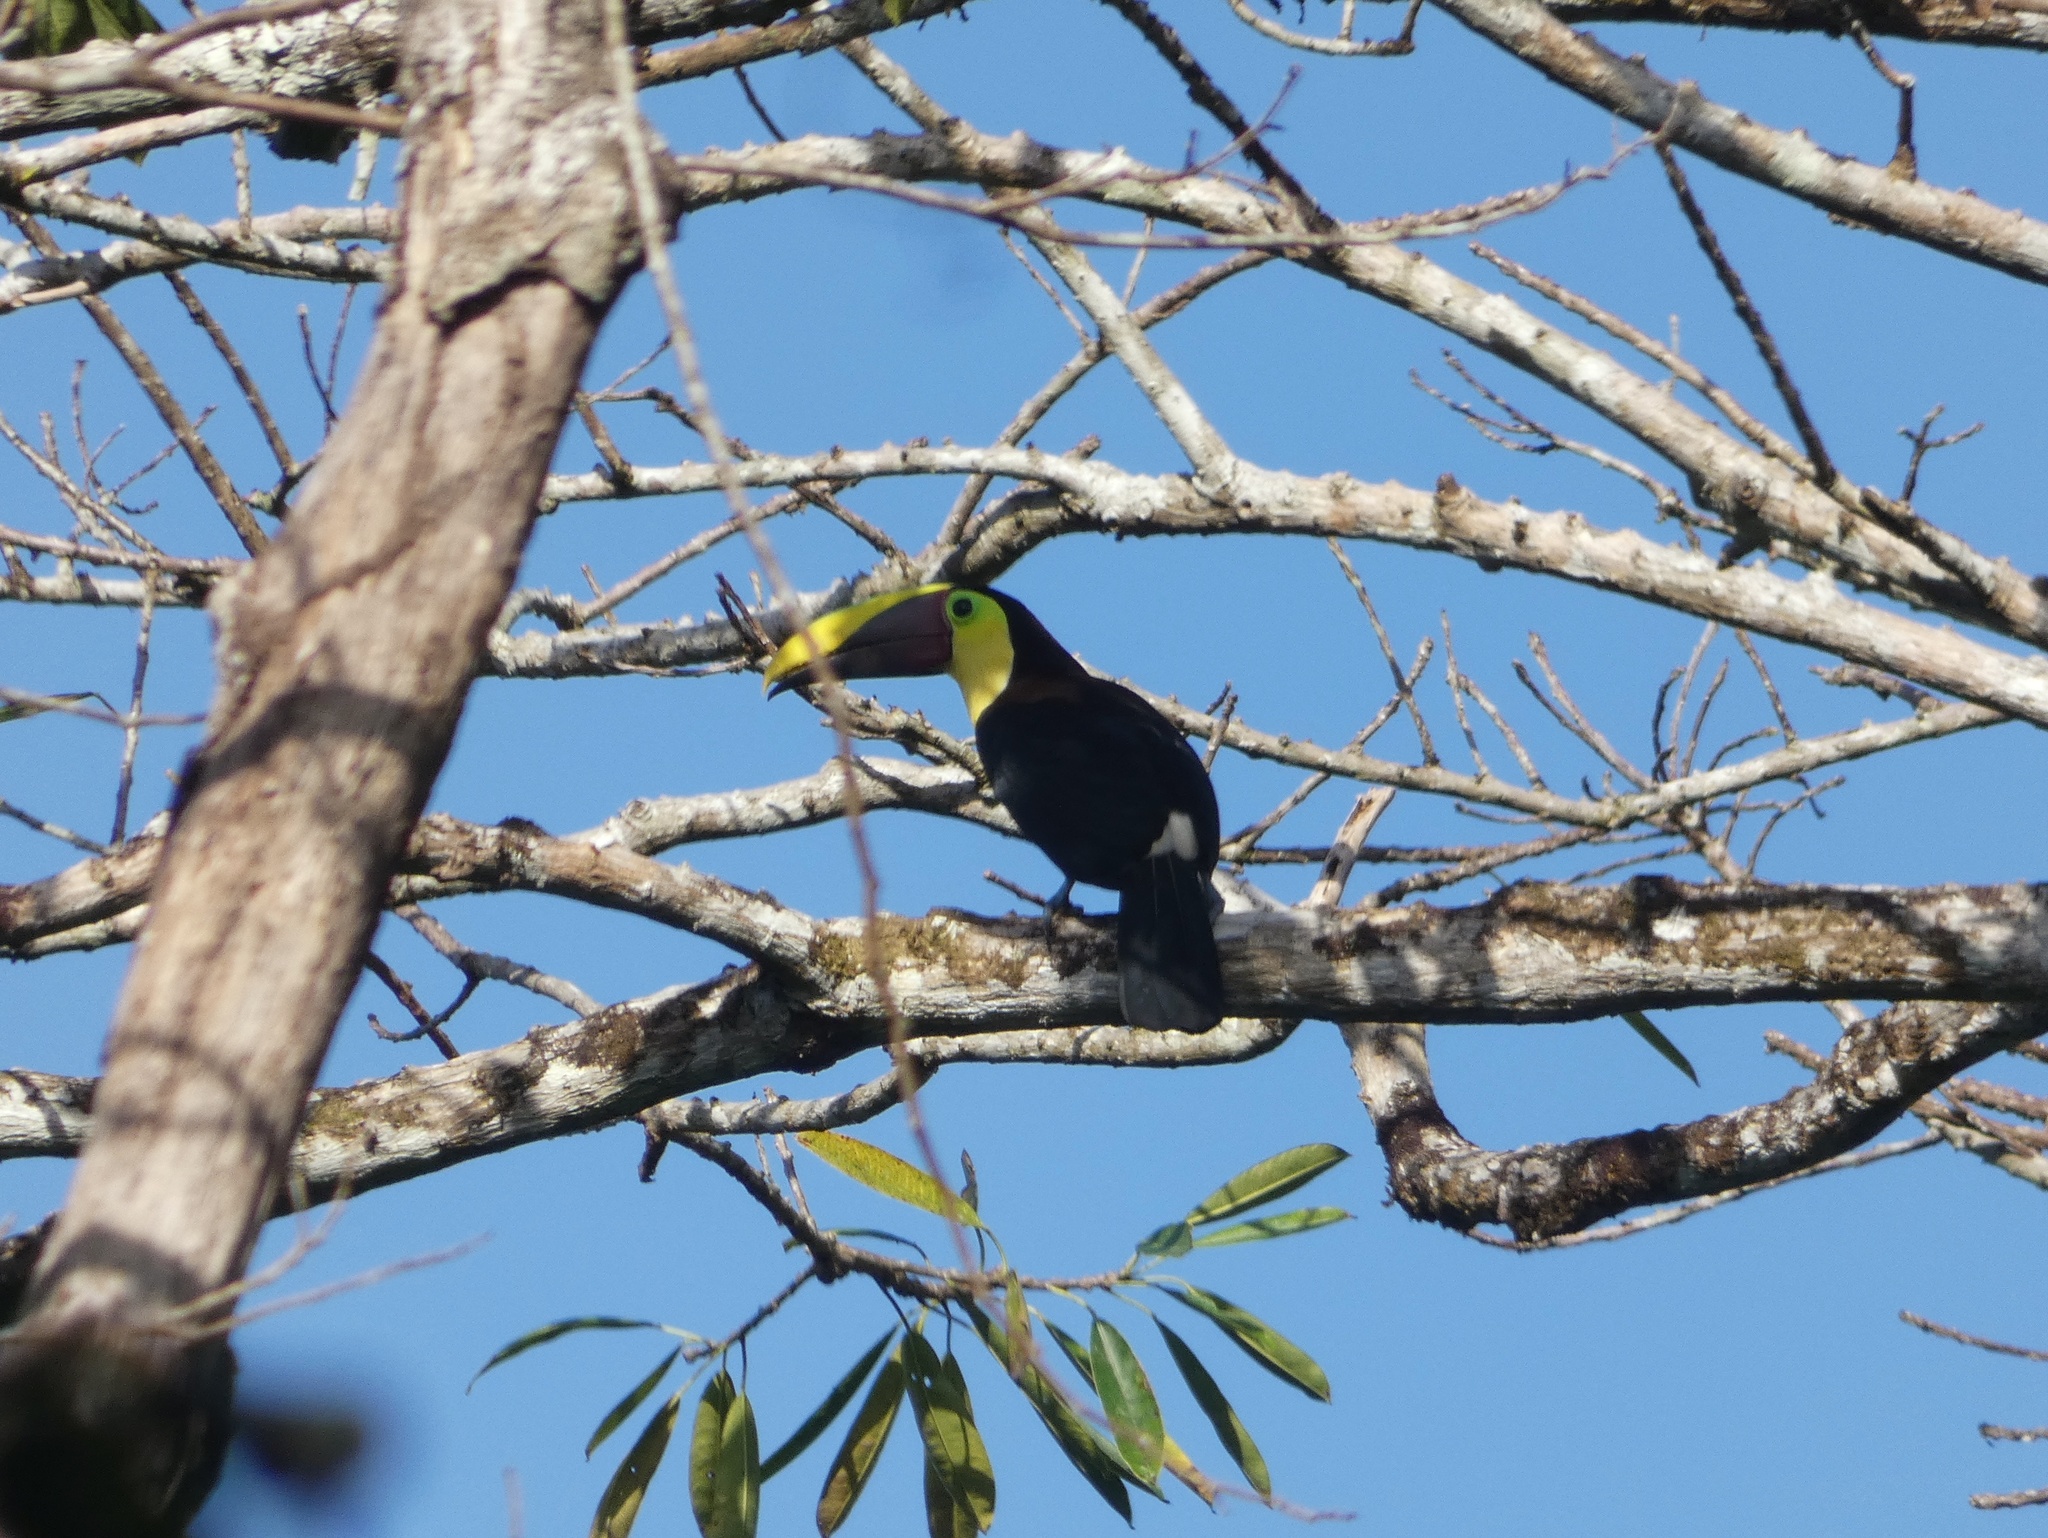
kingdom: Animalia
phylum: Chordata
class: Aves
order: Piciformes
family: Ramphastidae
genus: Ramphastos
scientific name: Ramphastos ambiguus
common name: Yellow-throated toucan
